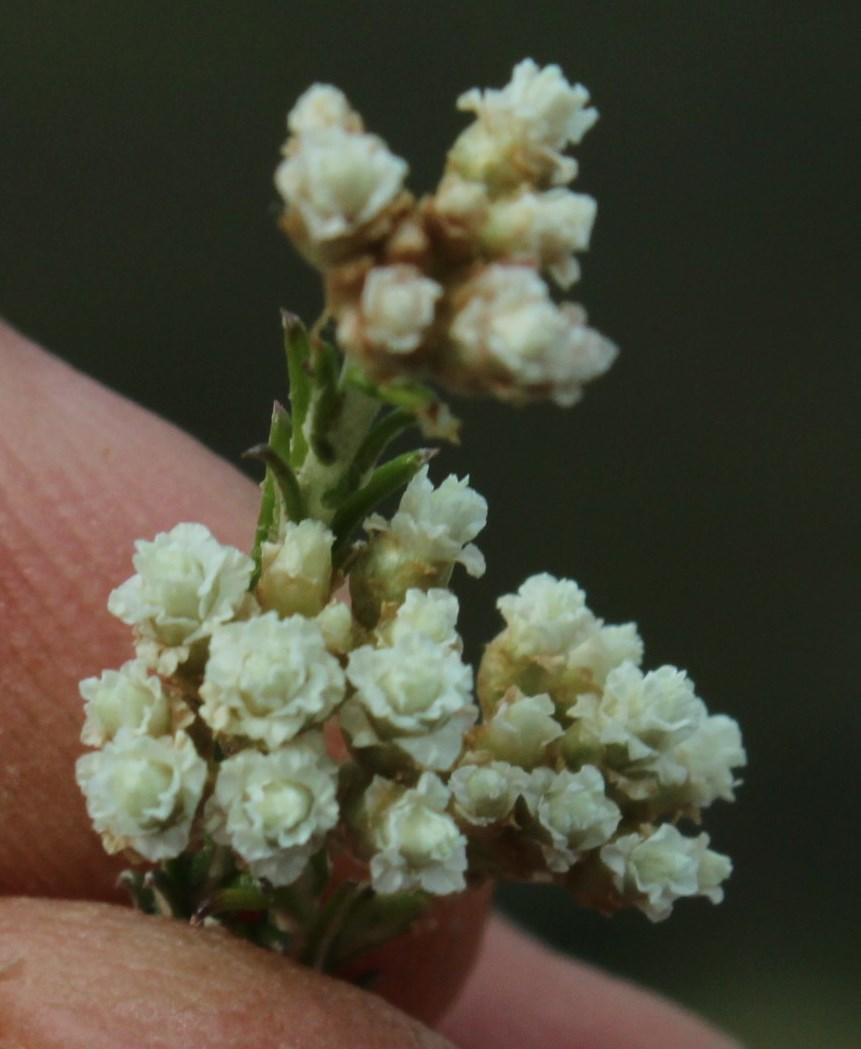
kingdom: Plantae
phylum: Tracheophyta
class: Magnoliopsida
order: Asterales
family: Asteraceae
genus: Helichrysum
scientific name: Helichrysum teretifolium
